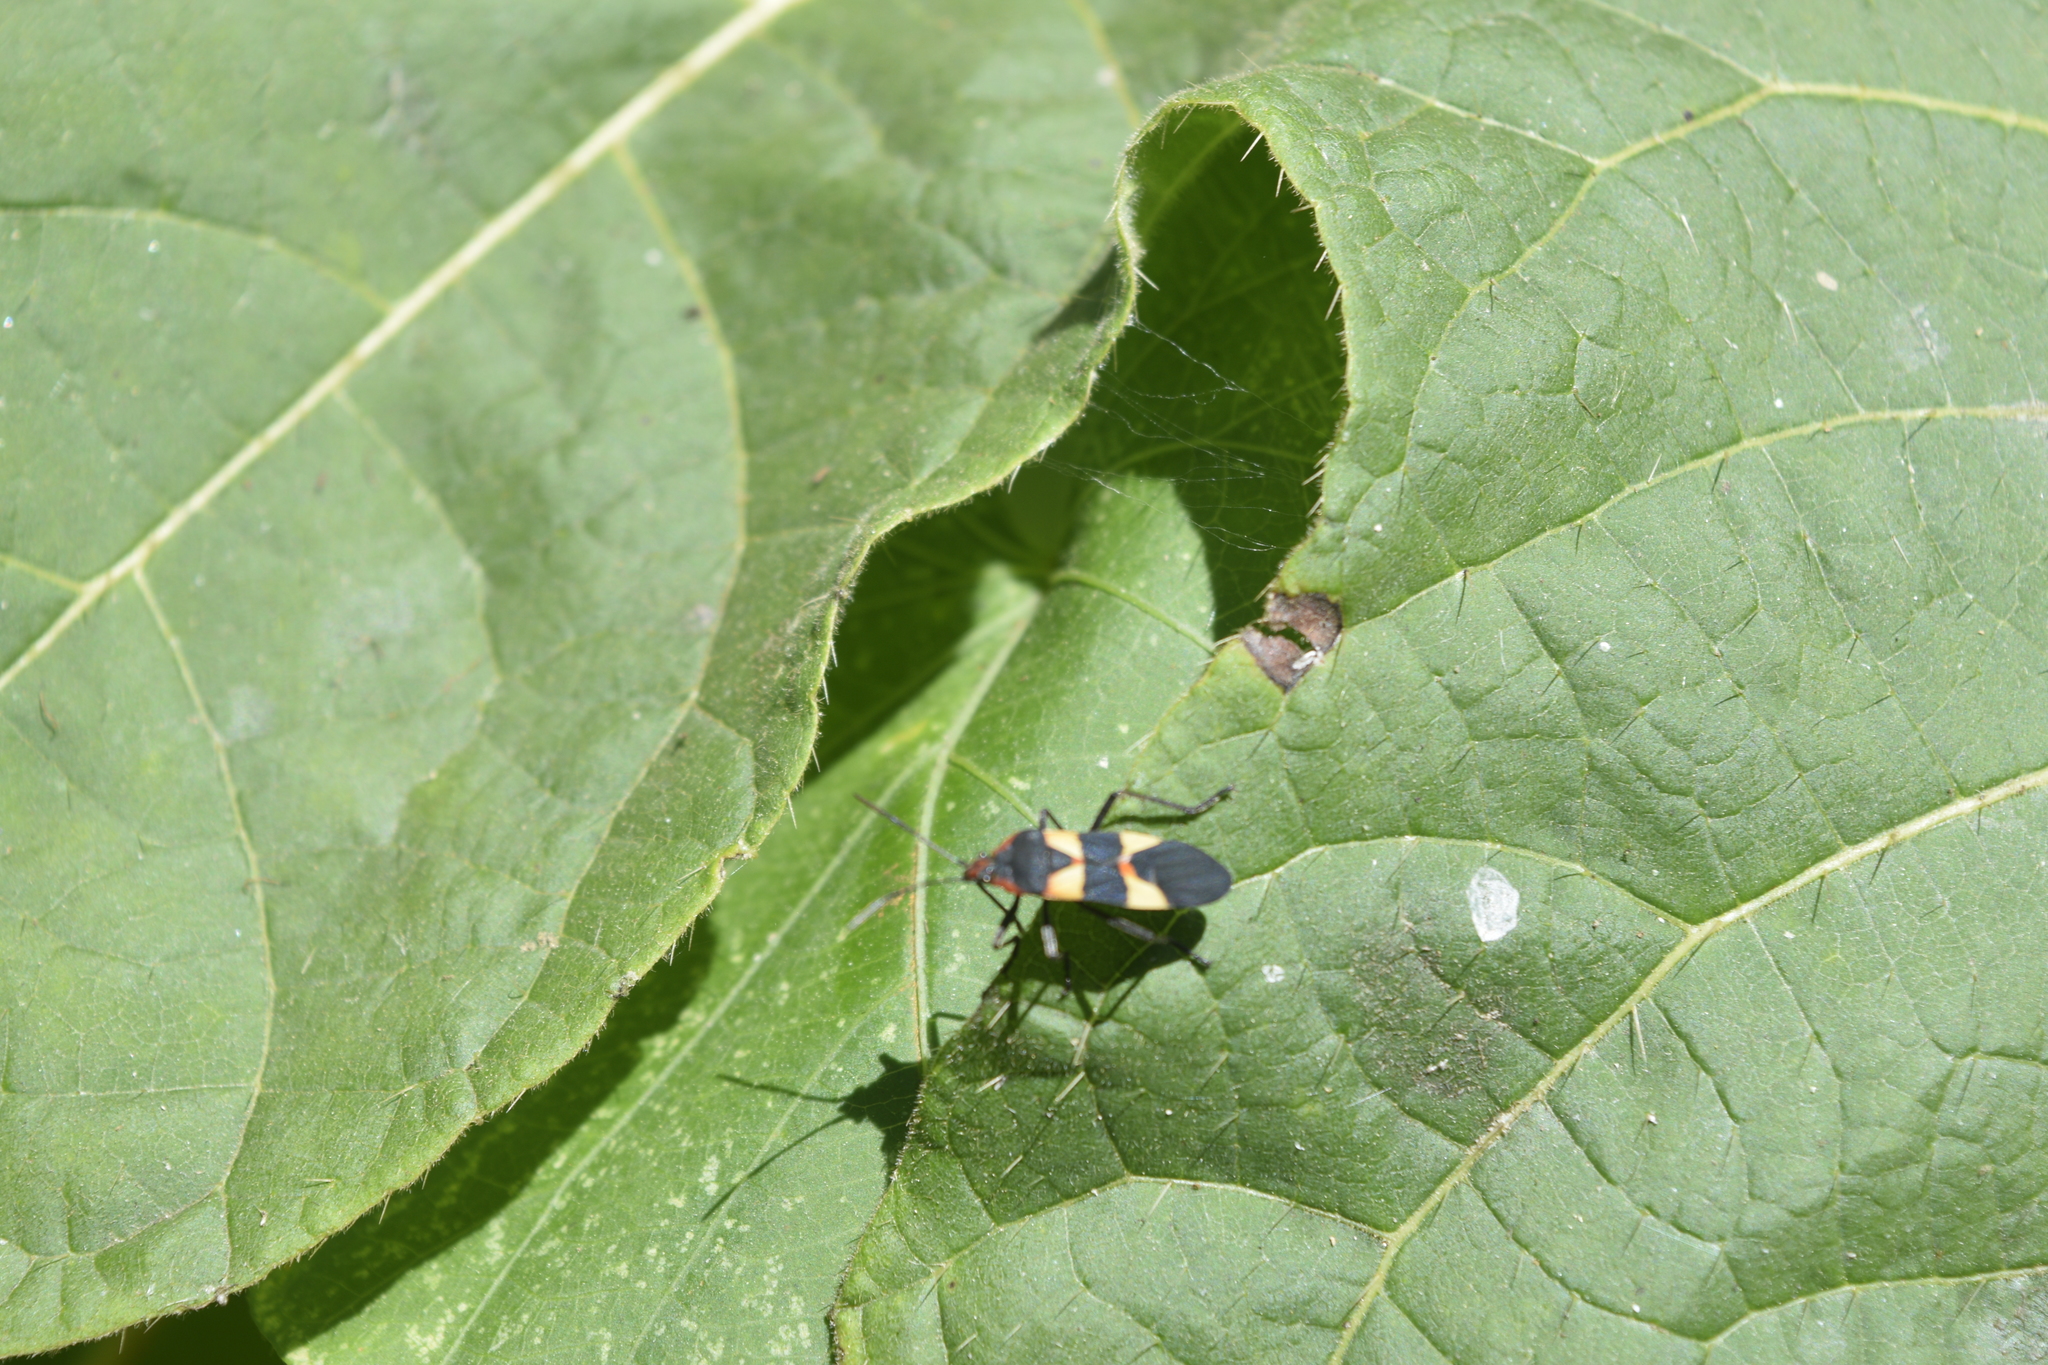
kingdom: Animalia
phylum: Arthropoda
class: Insecta
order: Hemiptera
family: Lygaeidae
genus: Oncopeltus
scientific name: Oncopeltus fasciatus
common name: Large milkweed bug
